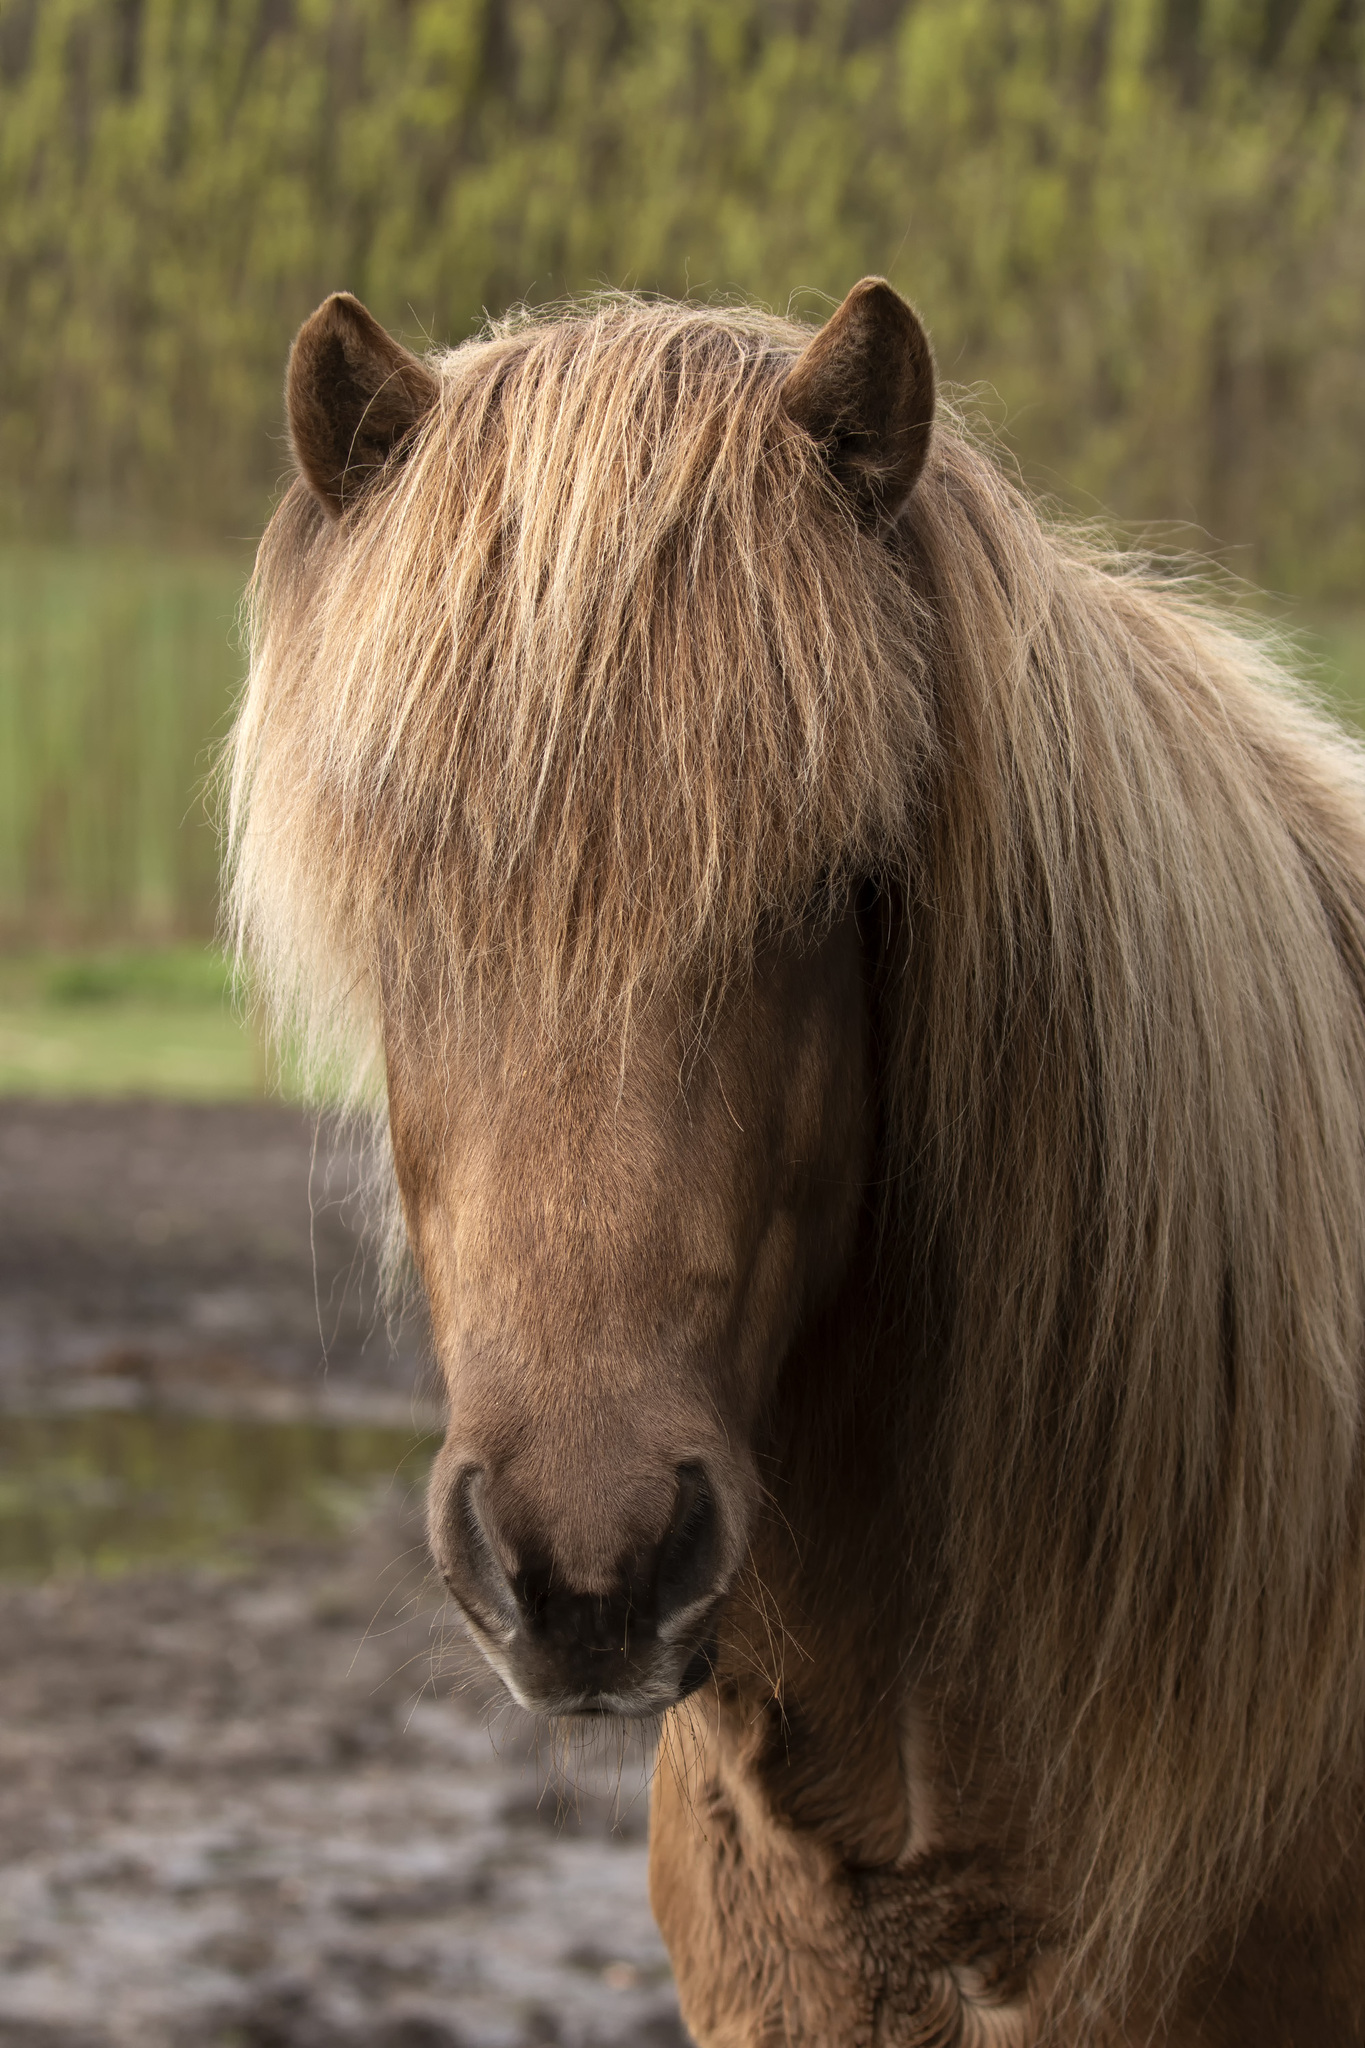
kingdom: Animalia
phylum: Chordata
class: Mammalia
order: Perissodactyla
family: Equidae
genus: Equus
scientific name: Equus caballus
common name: Horse
